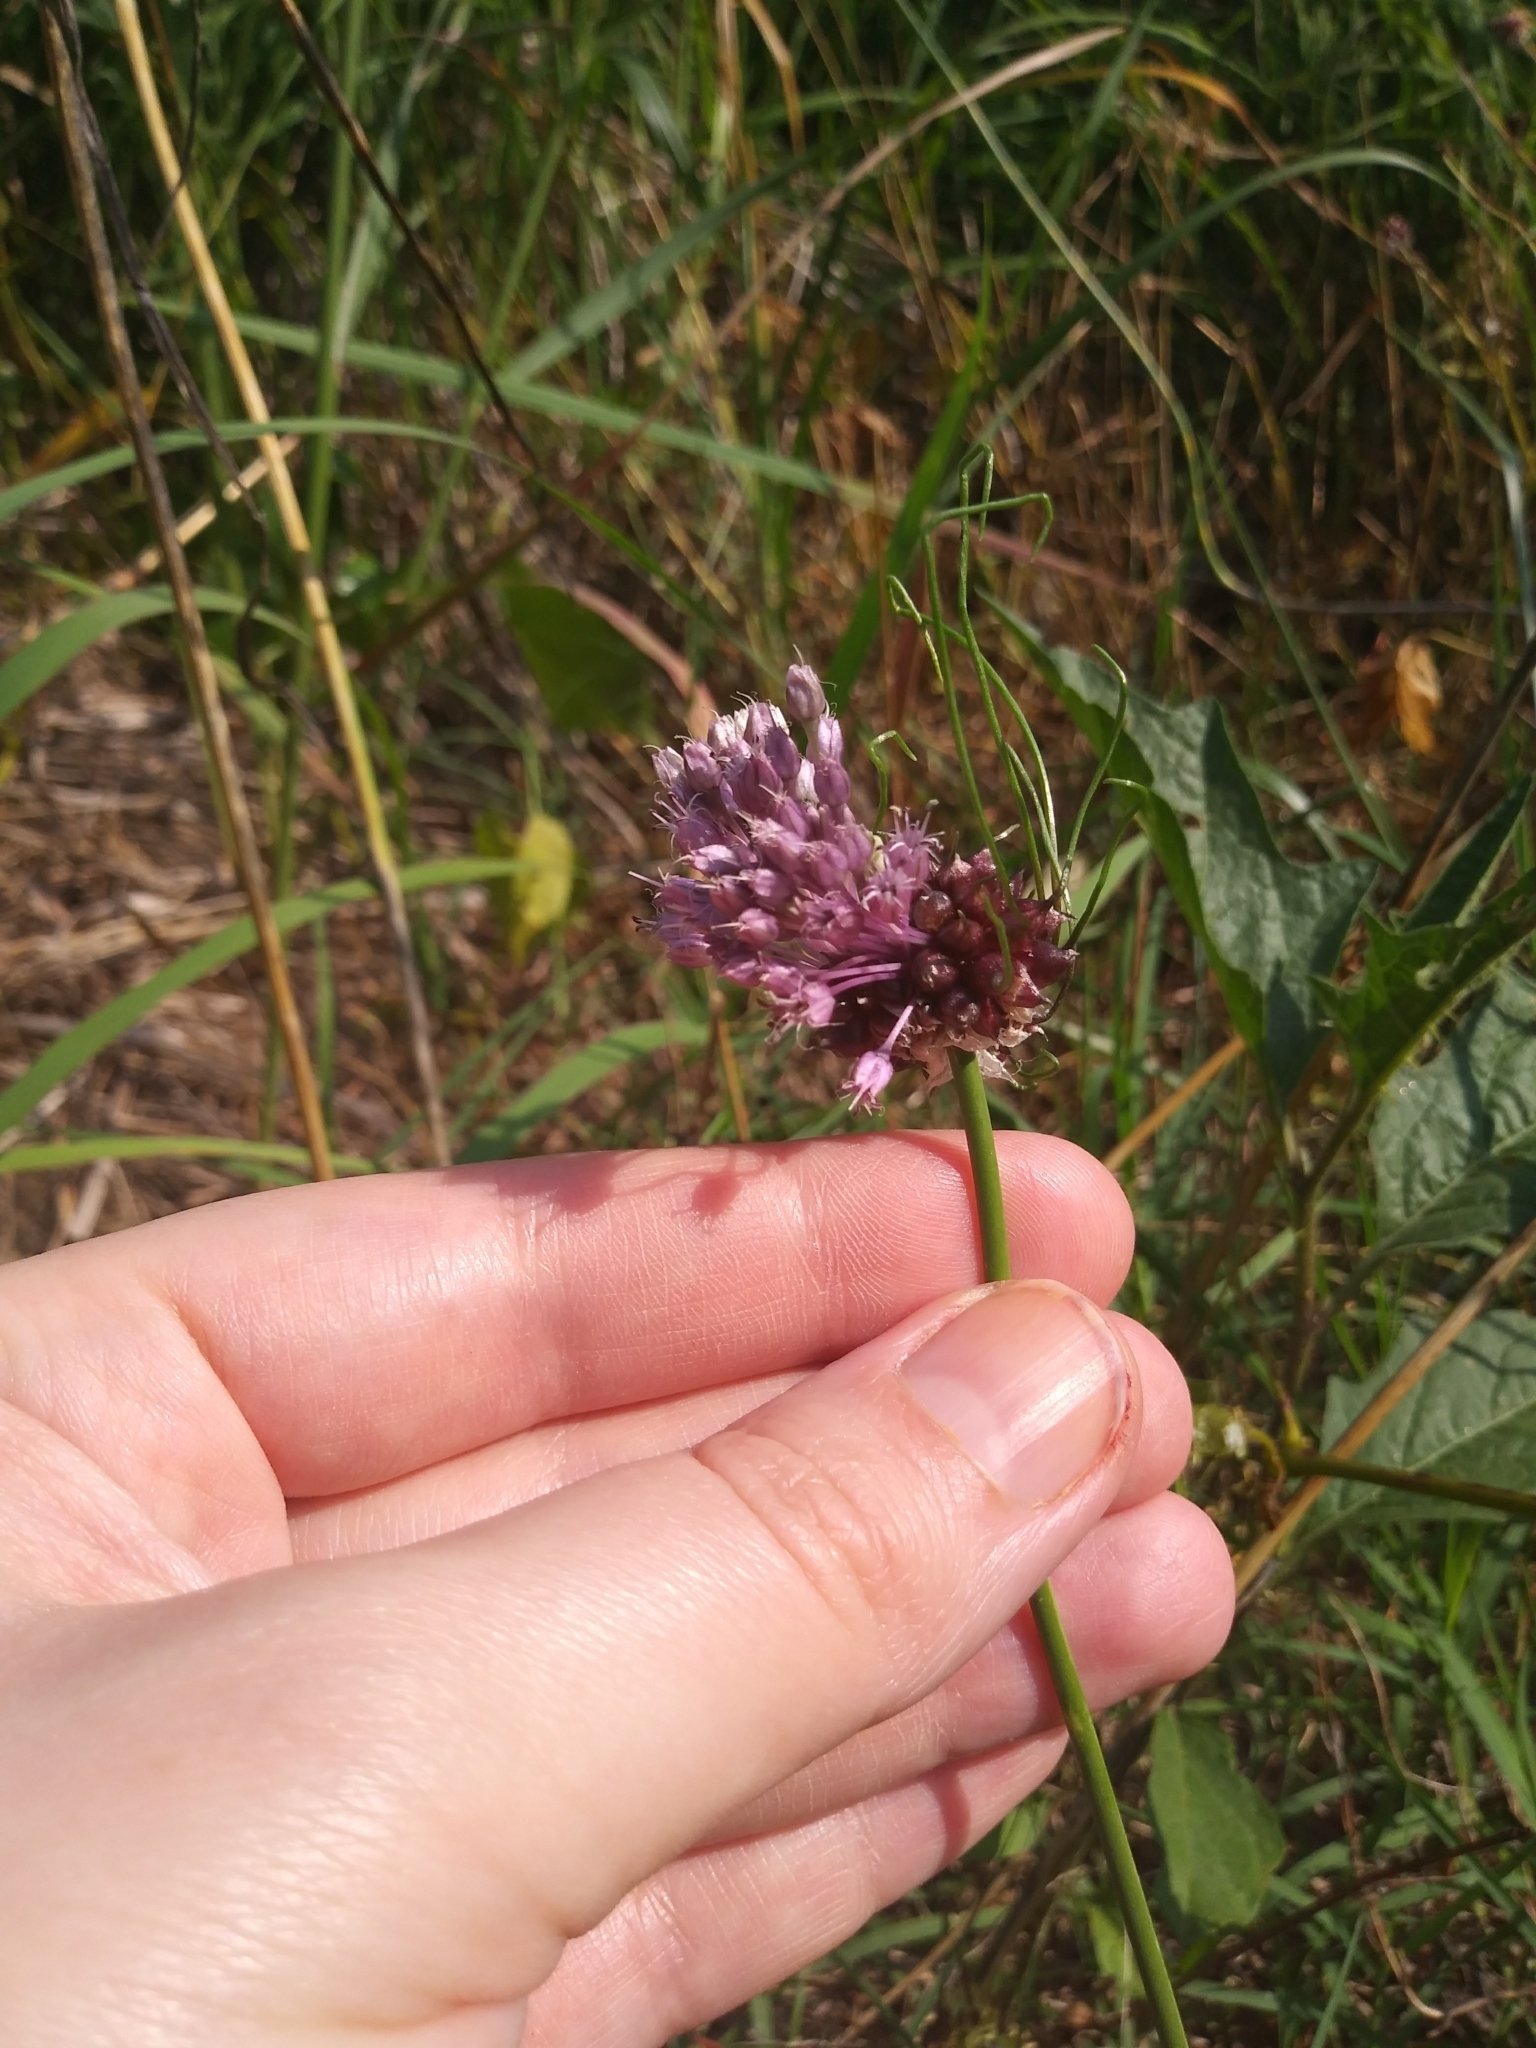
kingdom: Plantae
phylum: Tracheophyta
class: Liliopsida
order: Asparagales
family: Amaryllidaceae
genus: Allium
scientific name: Allium vineale
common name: Crow garlic
